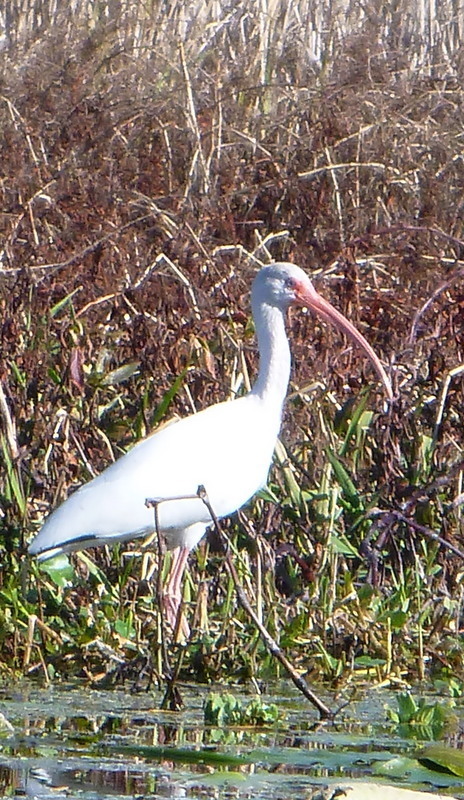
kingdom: Animalia
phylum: Chordata
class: Aves
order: Pelecaniformes
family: Threskiornithidae
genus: Eudocimus
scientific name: Eudocimus albus
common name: White ibis
